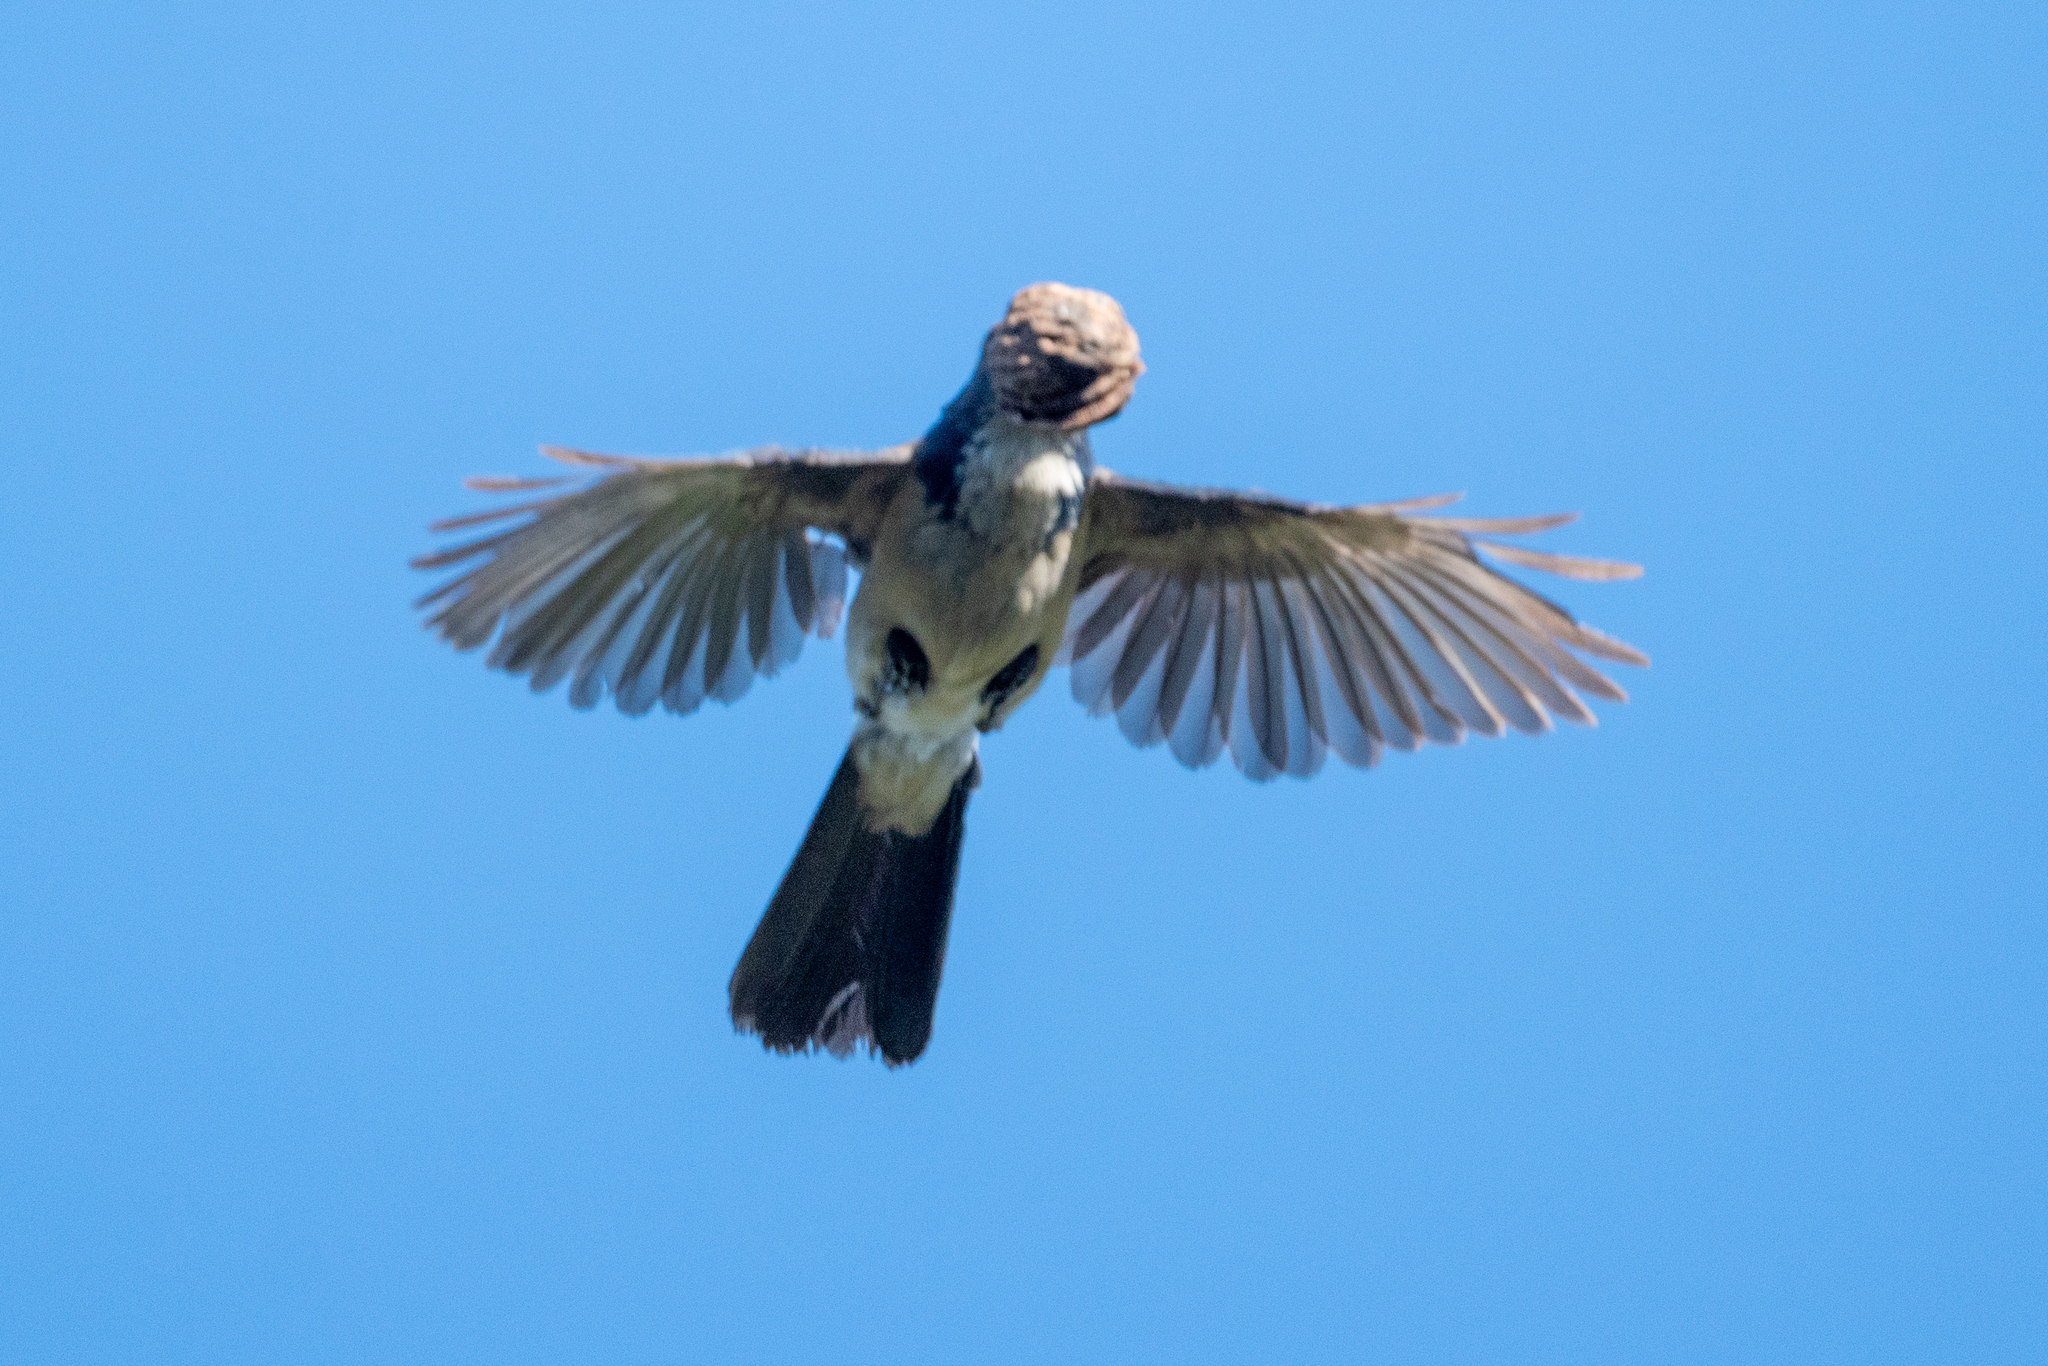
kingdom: Animalia
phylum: Chordata
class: Aves
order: Passeriformes
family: Corvidae
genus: Aphelocoma
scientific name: Aphelocoma californica
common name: California scrub-jay
